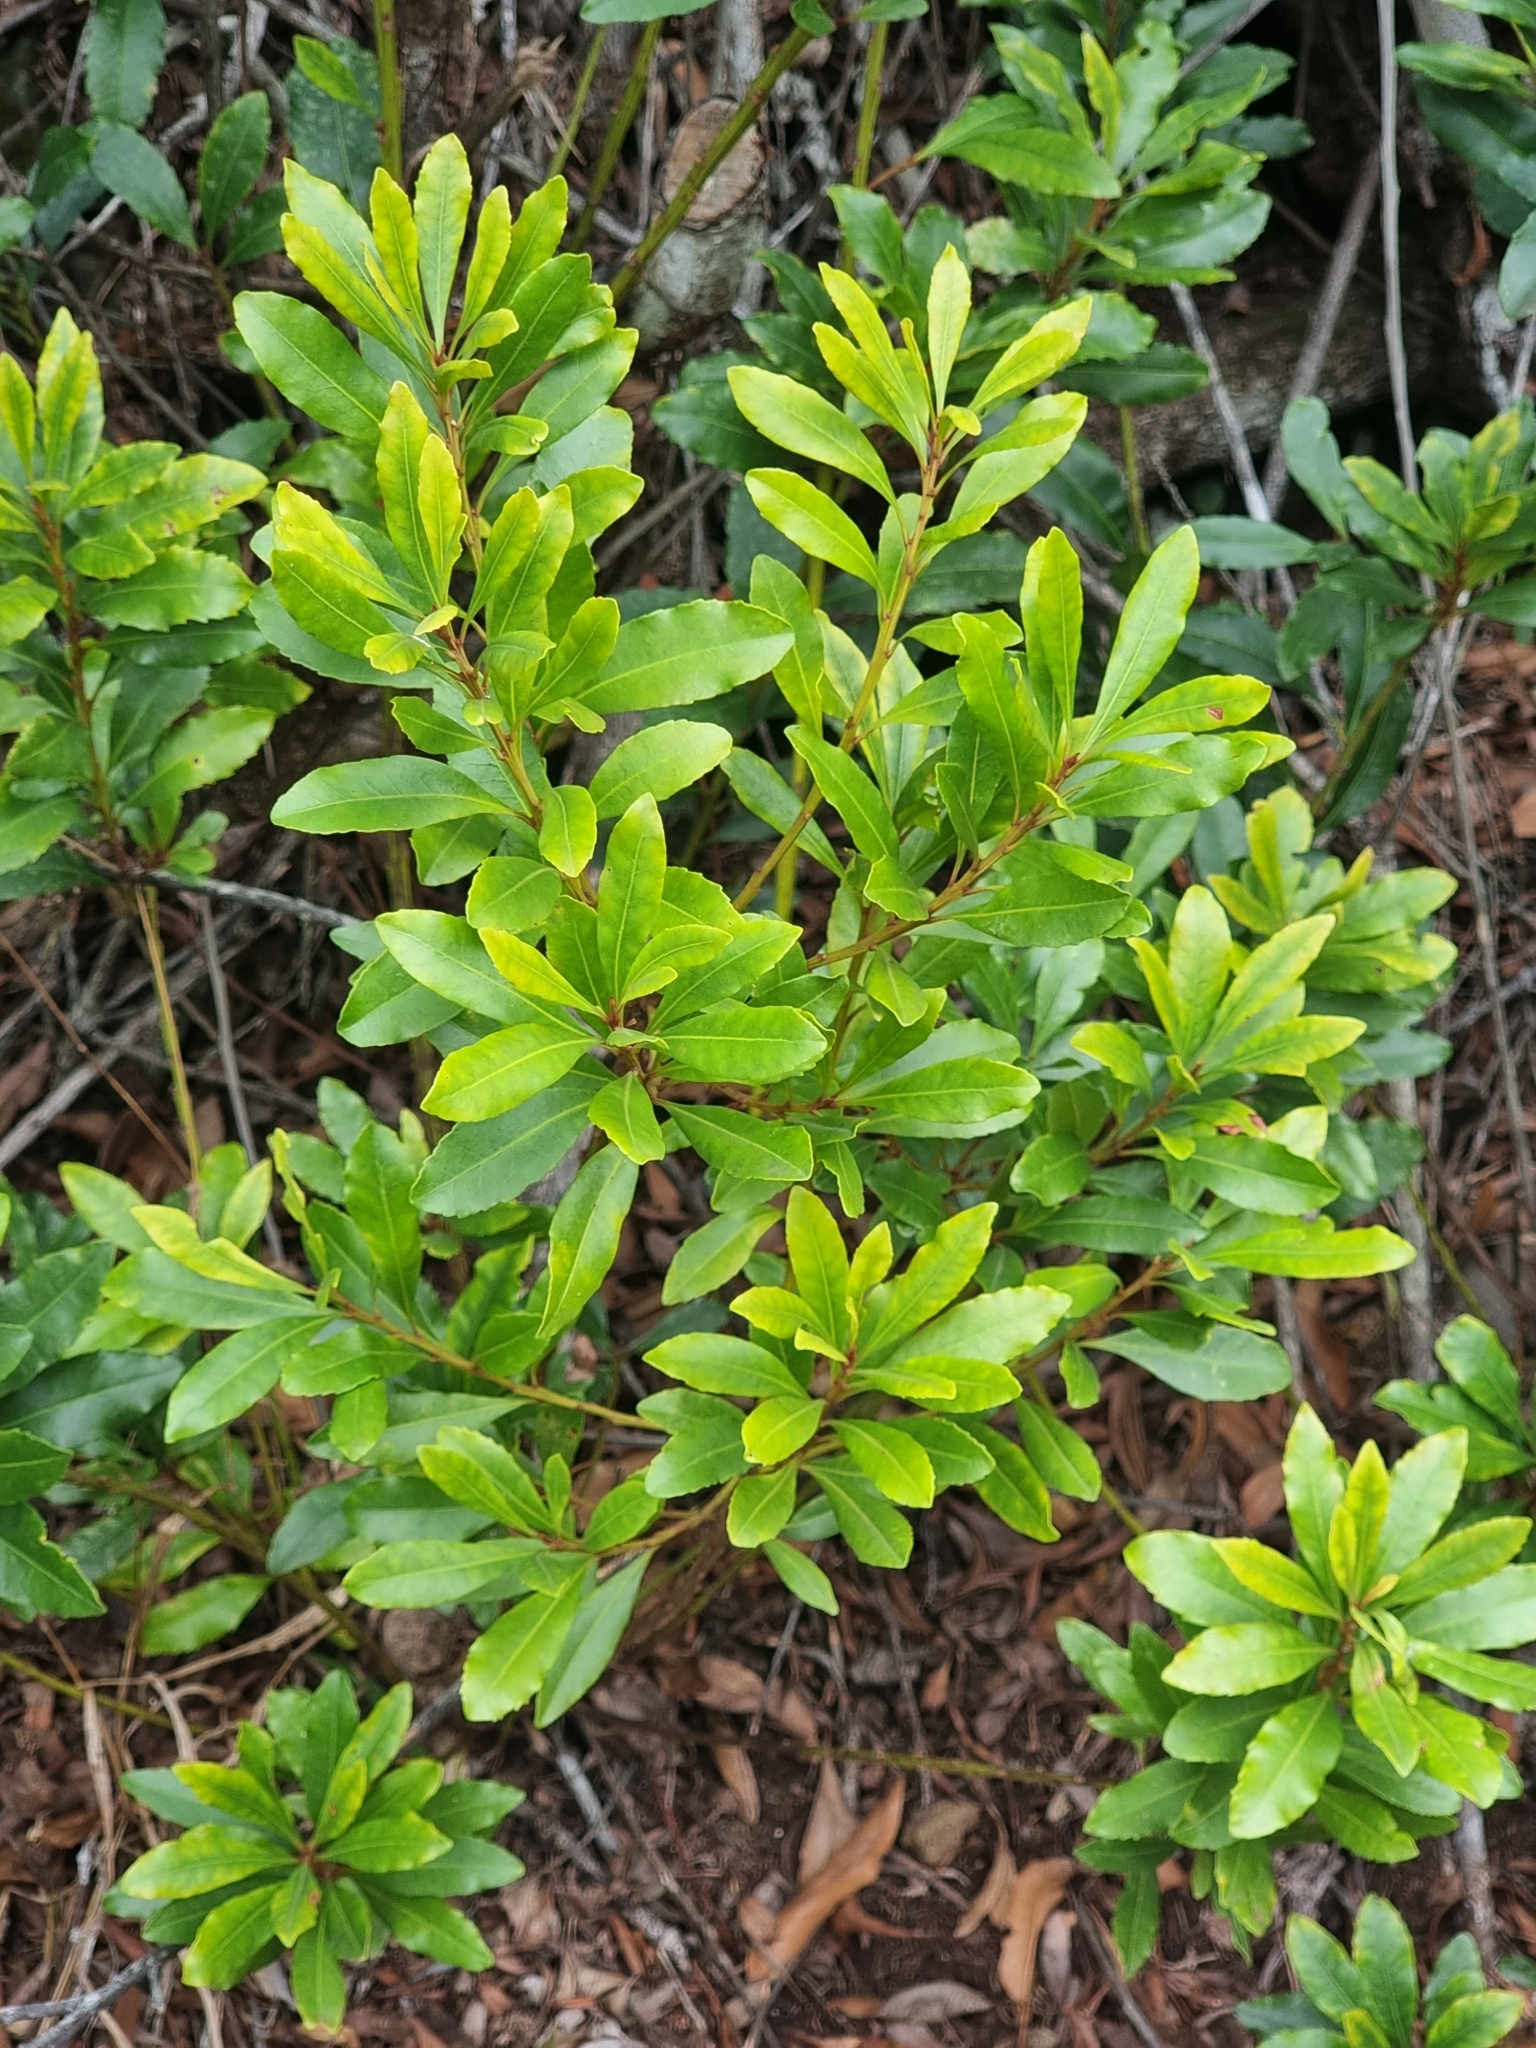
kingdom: Plantae
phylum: Tracheophyta
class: Magnoliopsida
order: Fagales
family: Myricaceae
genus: Morella
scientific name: Morella faya
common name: Firetree
